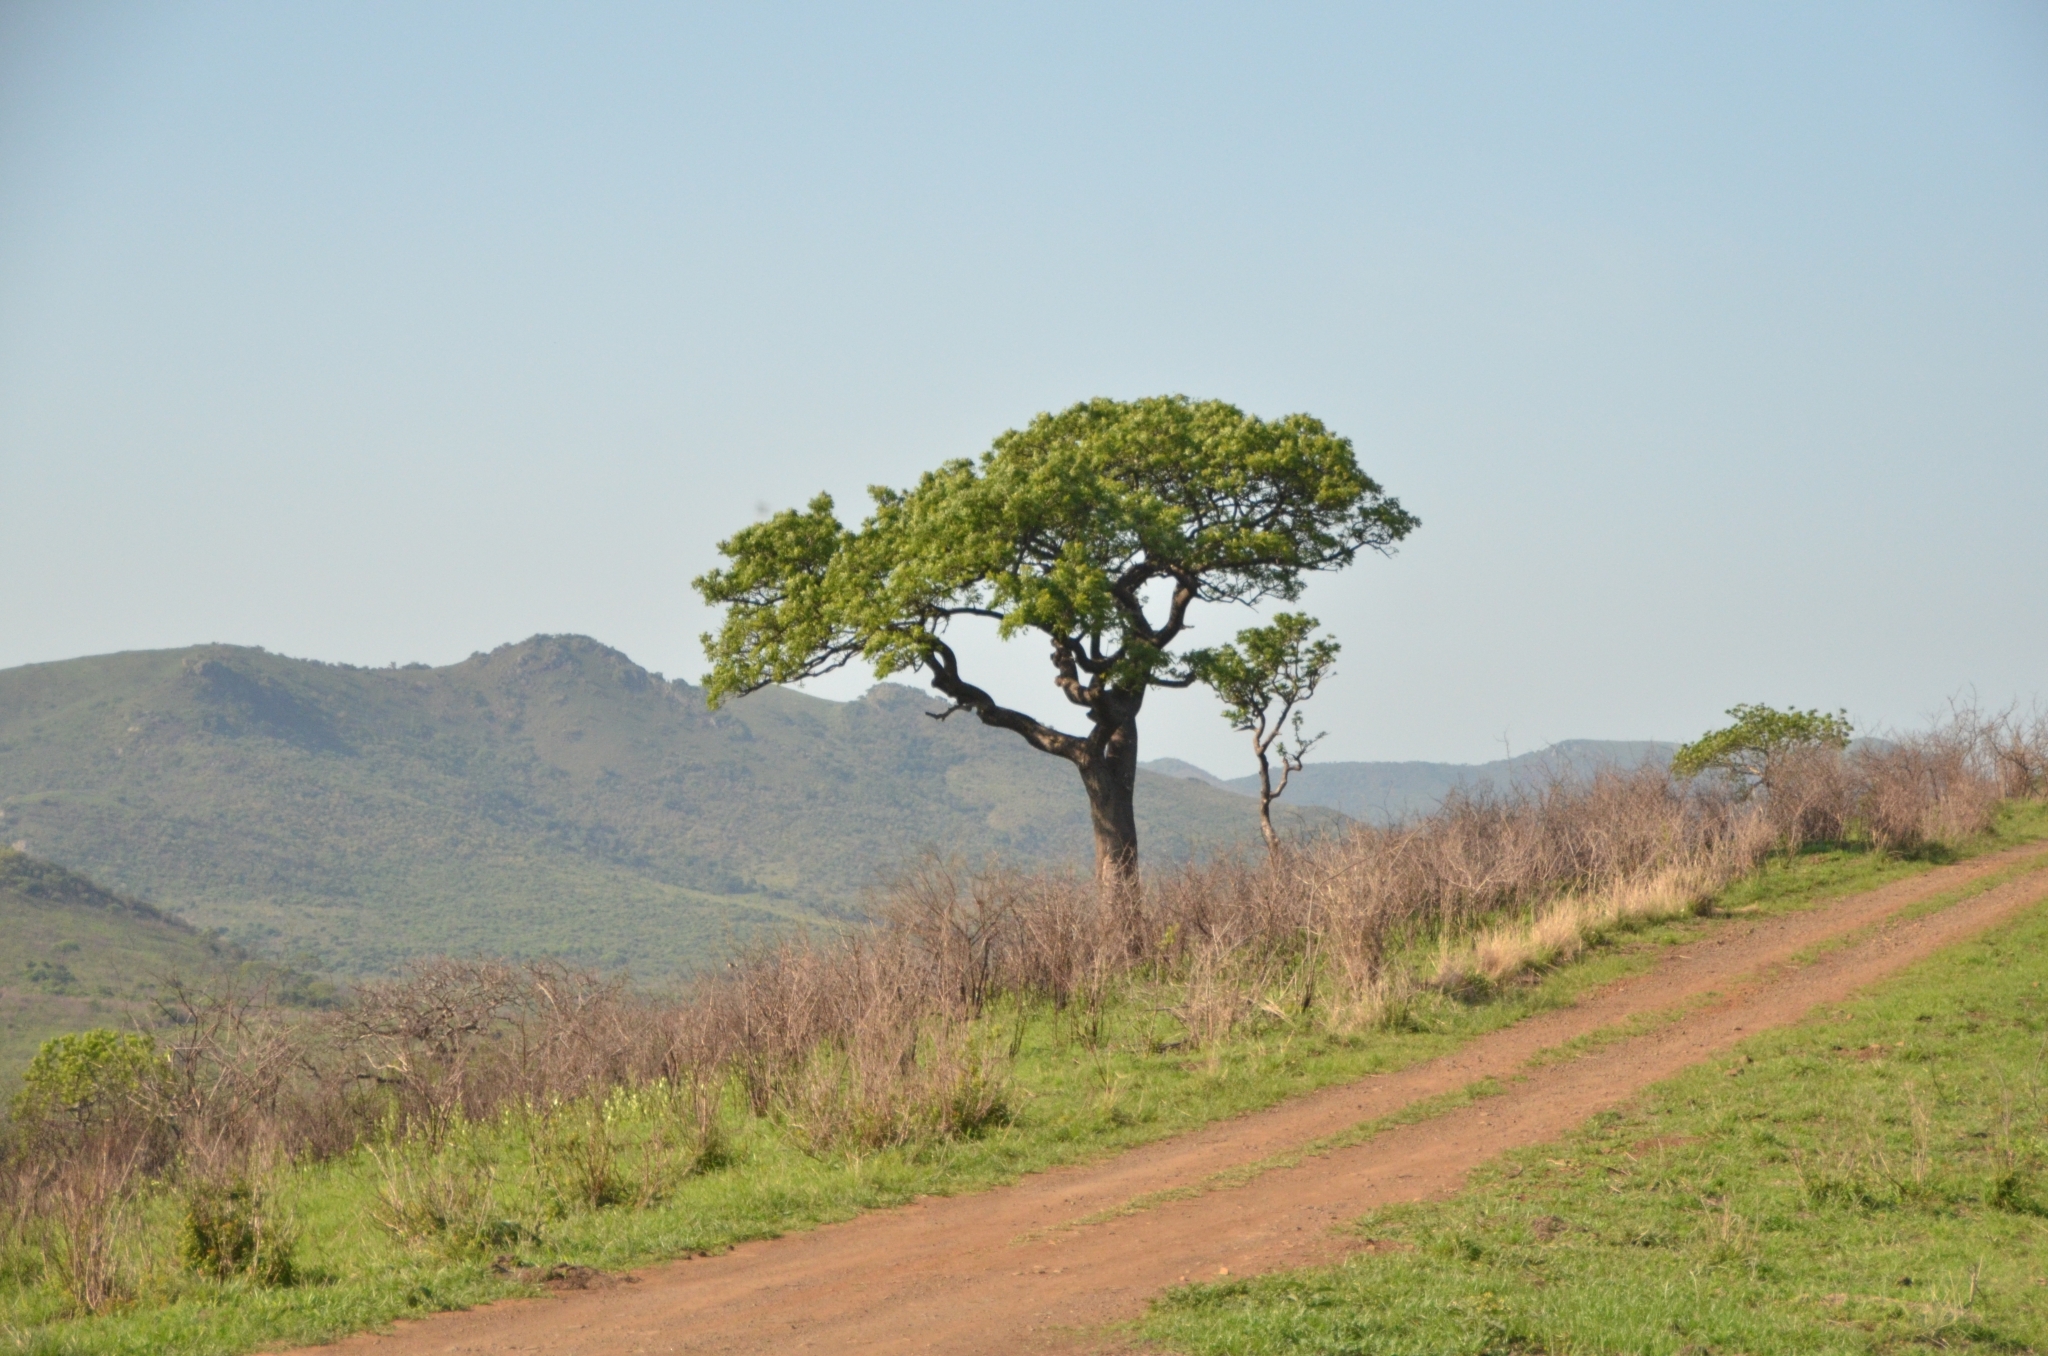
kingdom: Plantae
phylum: Tracheophyta
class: Magnoliopsida
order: Sapindales
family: Anacardiaceae
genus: Sclerocarya
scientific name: Sclerocarya birrea
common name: Marula
